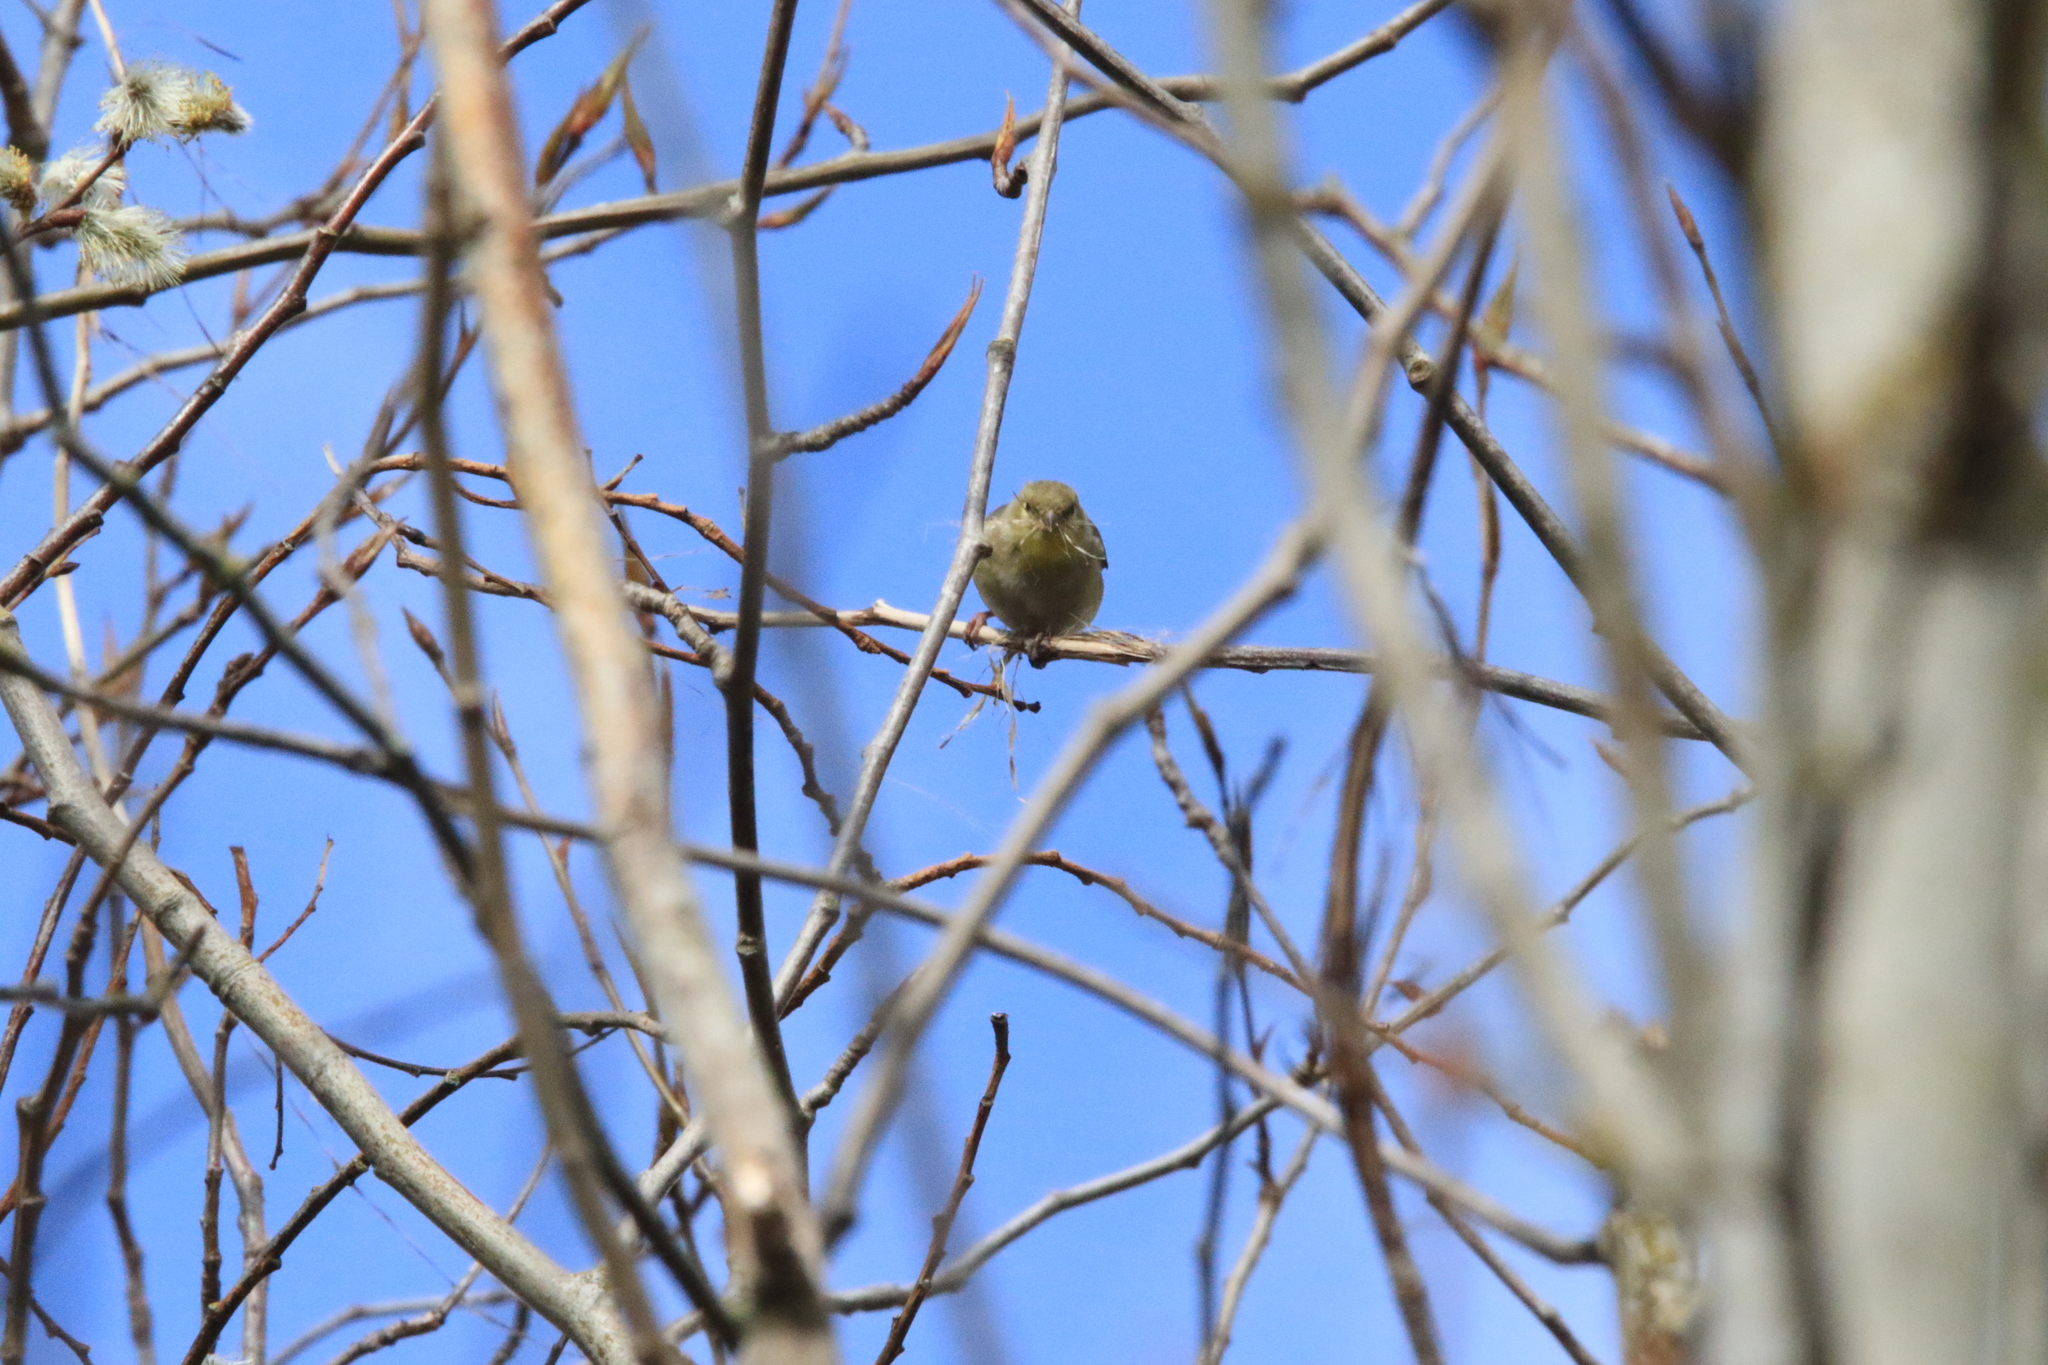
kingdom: Animalia
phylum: Chordata
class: Aves
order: Passeriformes
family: Fringillidae
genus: Spinus
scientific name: Spinus tristis
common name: American goldfinch
